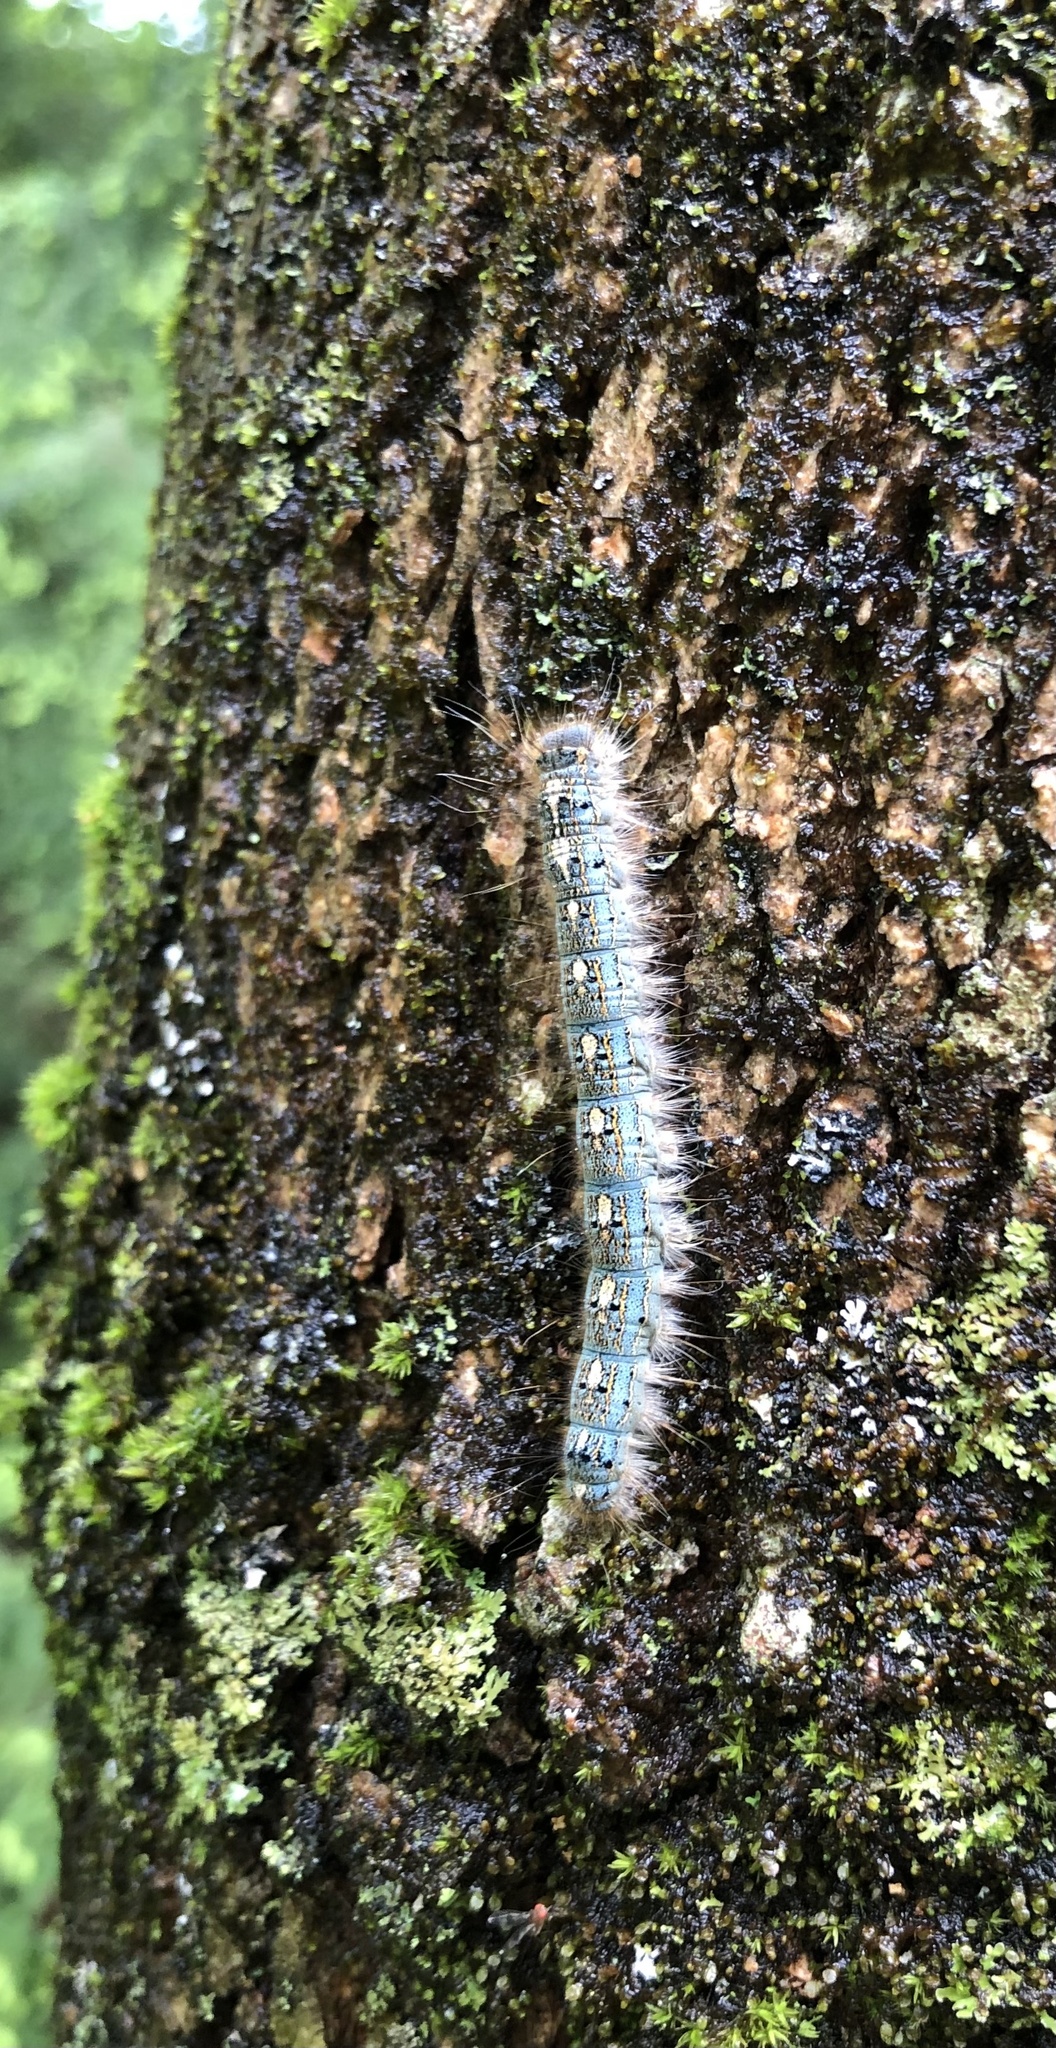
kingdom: Animalia
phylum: Arthropoda
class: Insecta
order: Lepidoptera
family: Lasiocampidae
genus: Malacosoma
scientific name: Malacosoma disstria
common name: Forest tent caterpillar
